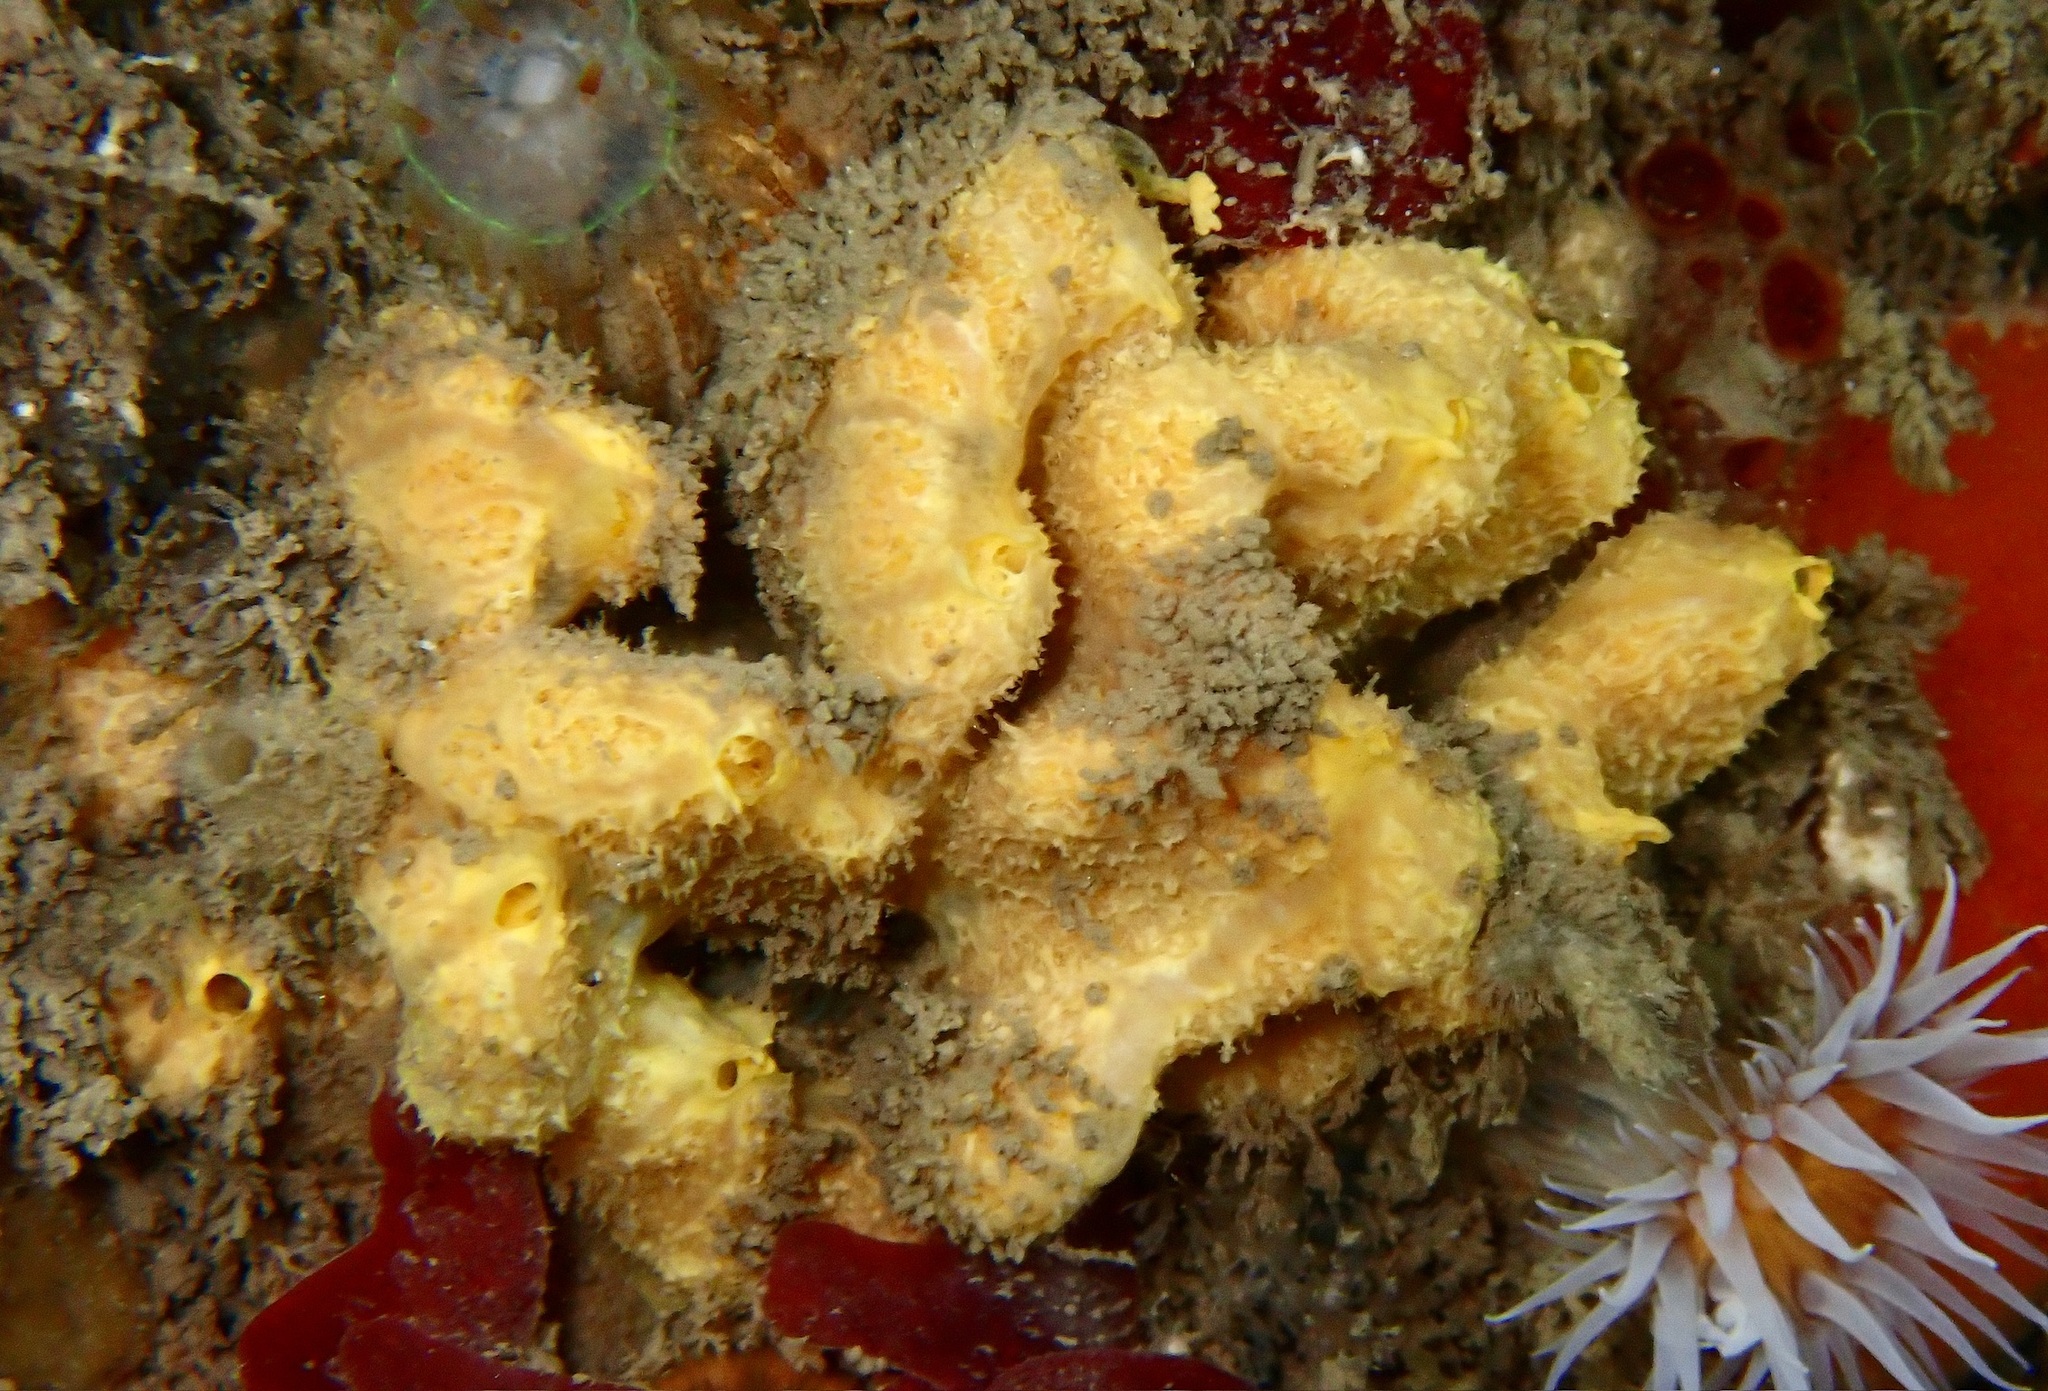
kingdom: Animalia
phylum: Porifera
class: Demospongiae
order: Axinellida
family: Axinellidae
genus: Axinella
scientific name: Axinella damicornis
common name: Crumpled duster sponge
